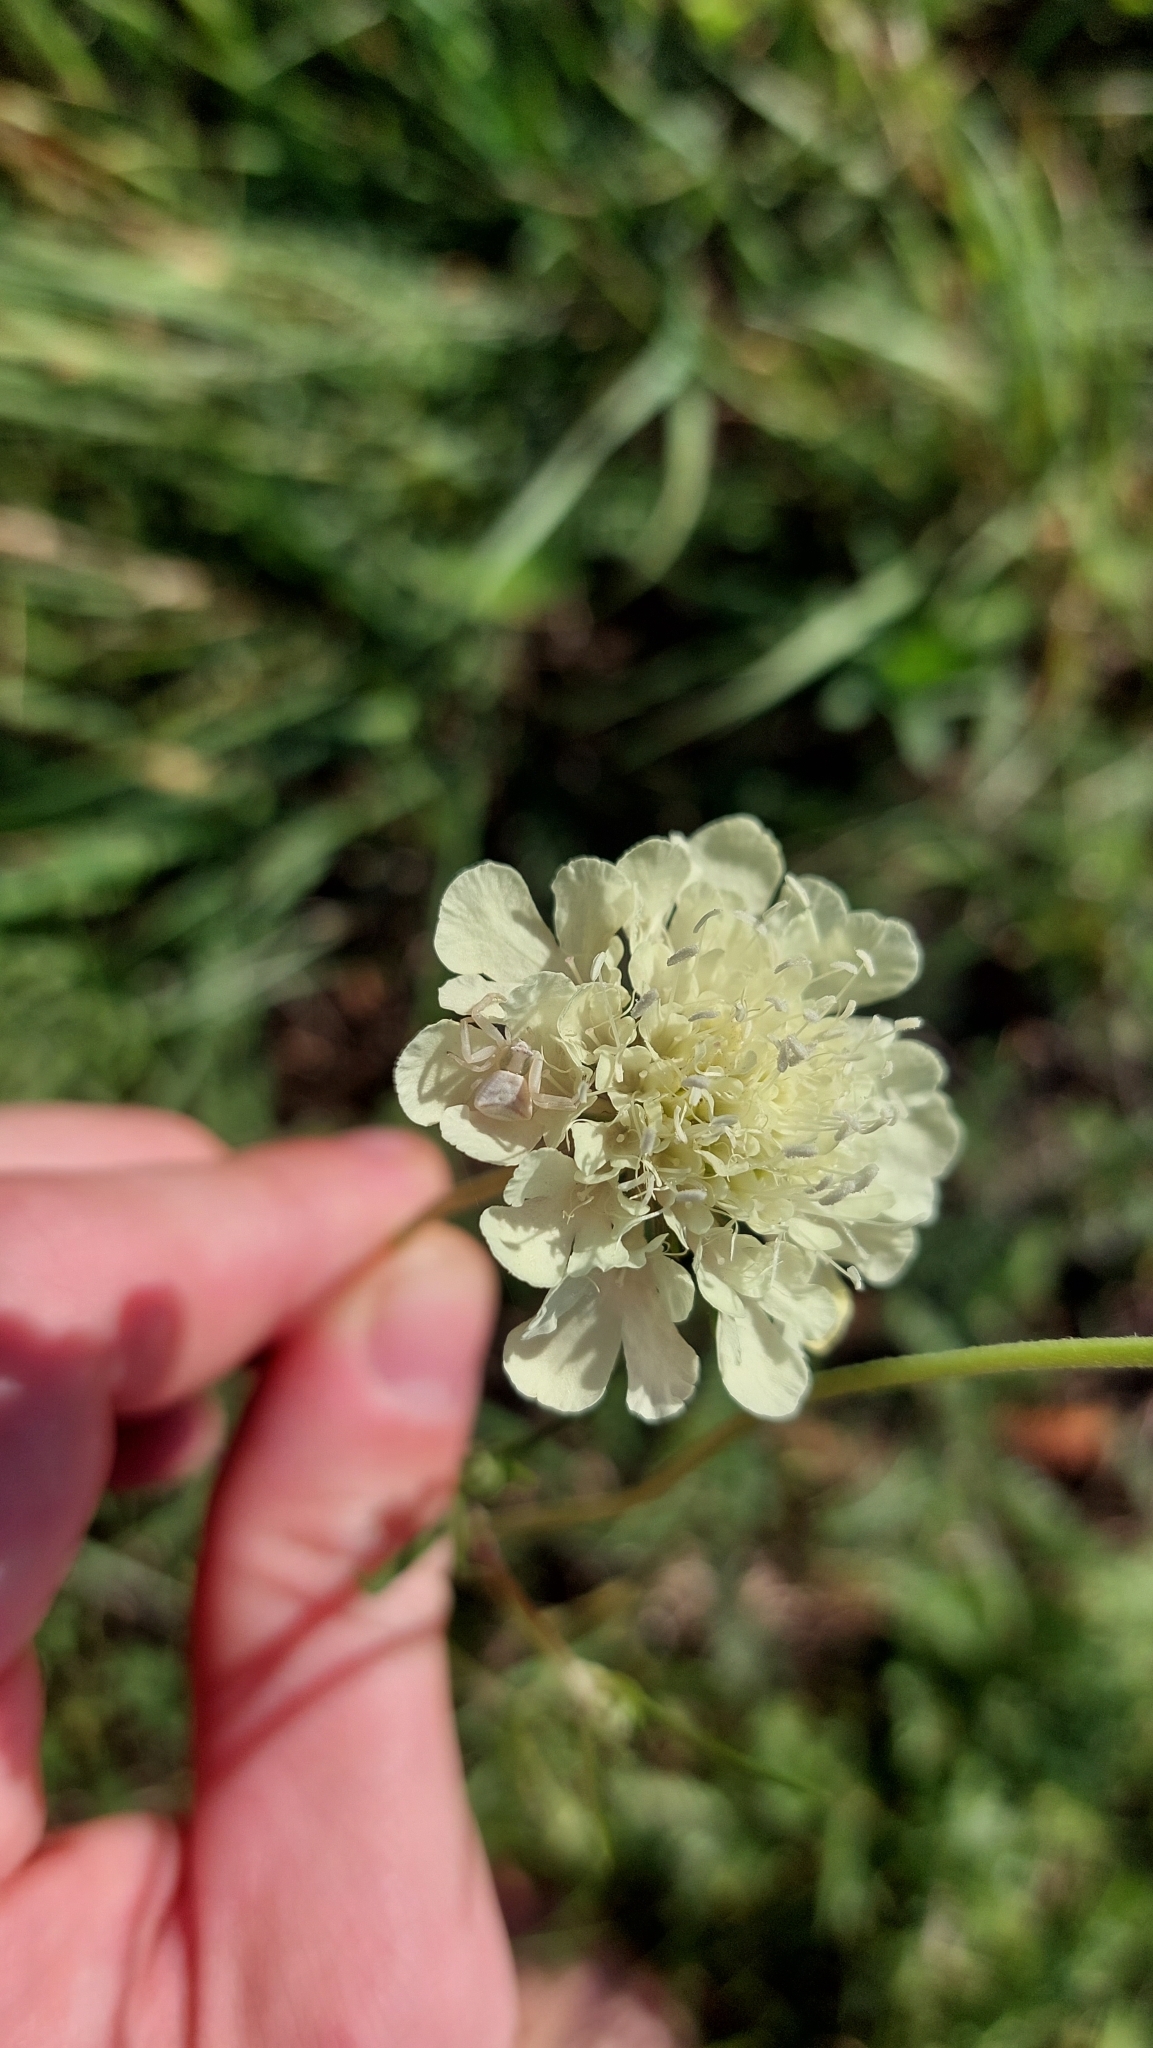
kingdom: Animalia
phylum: Arthropoda
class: Arachnida
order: Araneae
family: Thomisidae
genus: Thomisus
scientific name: Thomisus onustus
